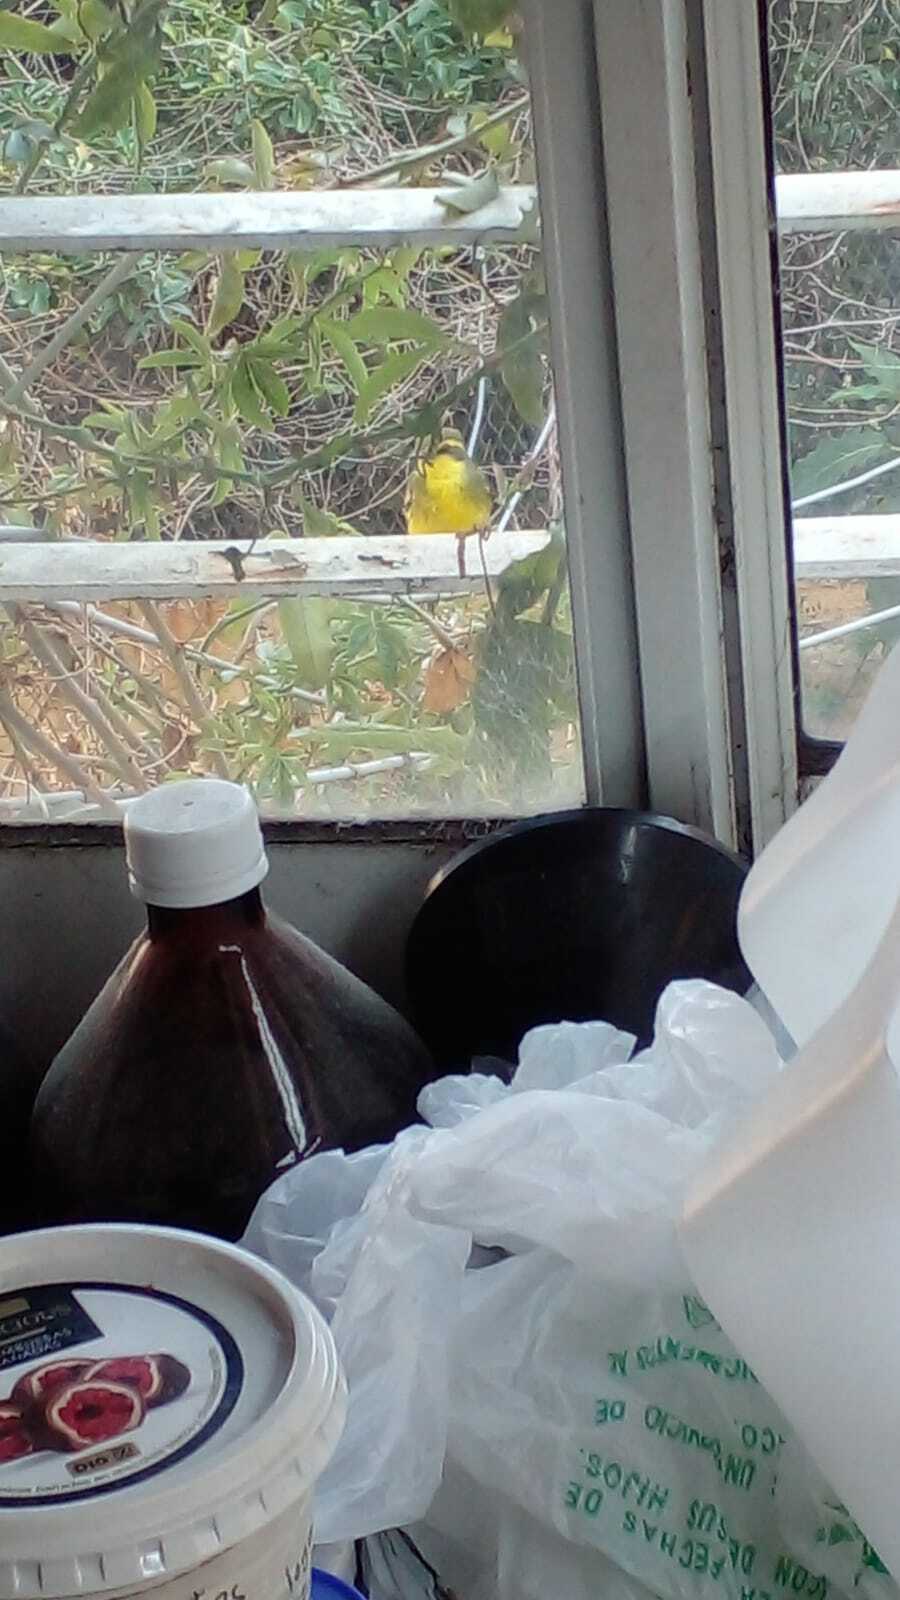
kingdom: Animalia
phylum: Chordata
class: Aves
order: Passeriformes
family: Tyrannidae
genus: Satrapa
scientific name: Satrapa icterophrys
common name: Yellow-browed tyrant
